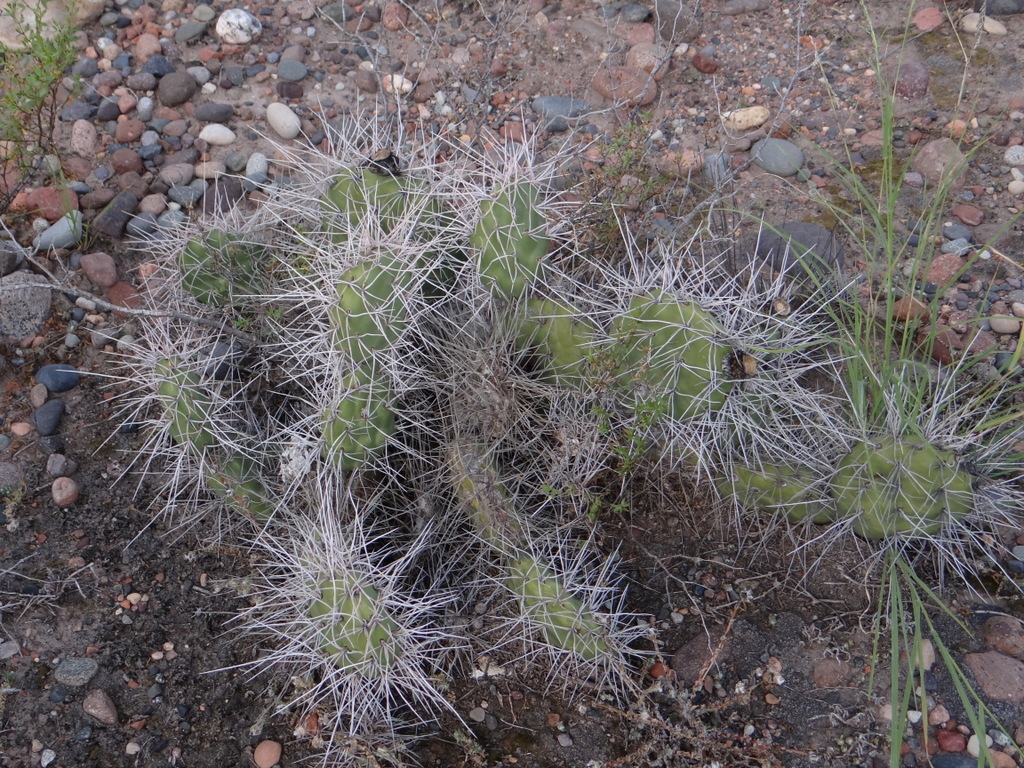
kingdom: Plantae
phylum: Tracheophyta
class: Magnoliopsida
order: Caryophyllales
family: Cactaceae
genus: Opuntia
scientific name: Opuntia sulphurea
